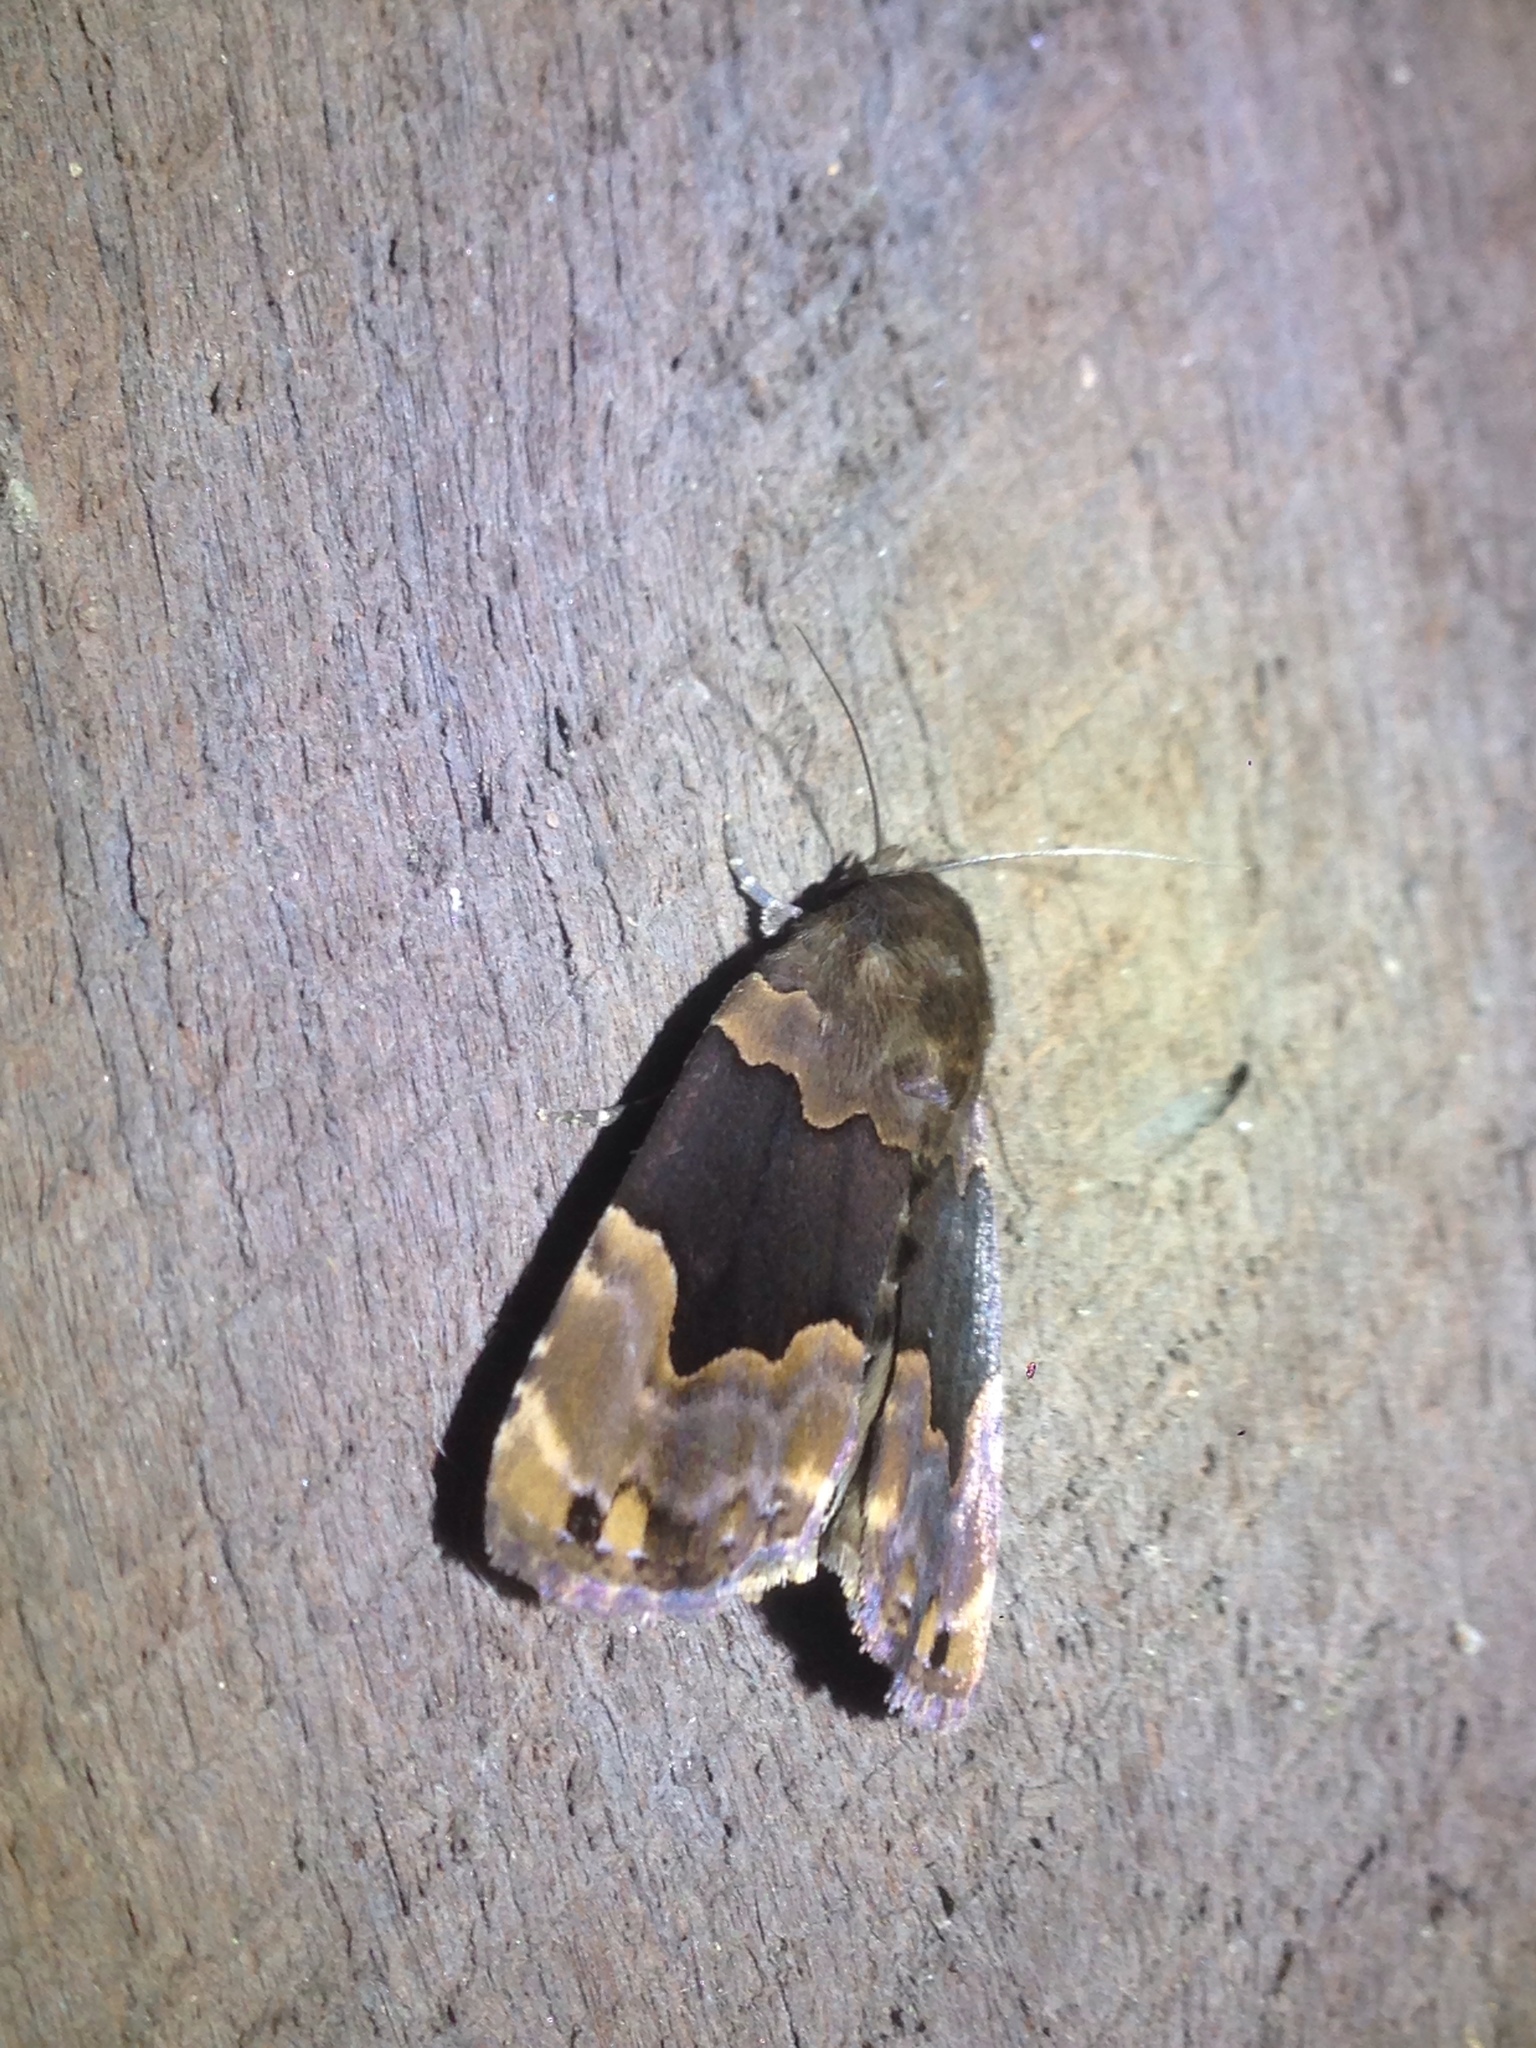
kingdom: Animalia
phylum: Arthropoda
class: Insecta
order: Lepidoptera
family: Erebidae
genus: Dinumma
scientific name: Dinumma deponens
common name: Purplish moth
